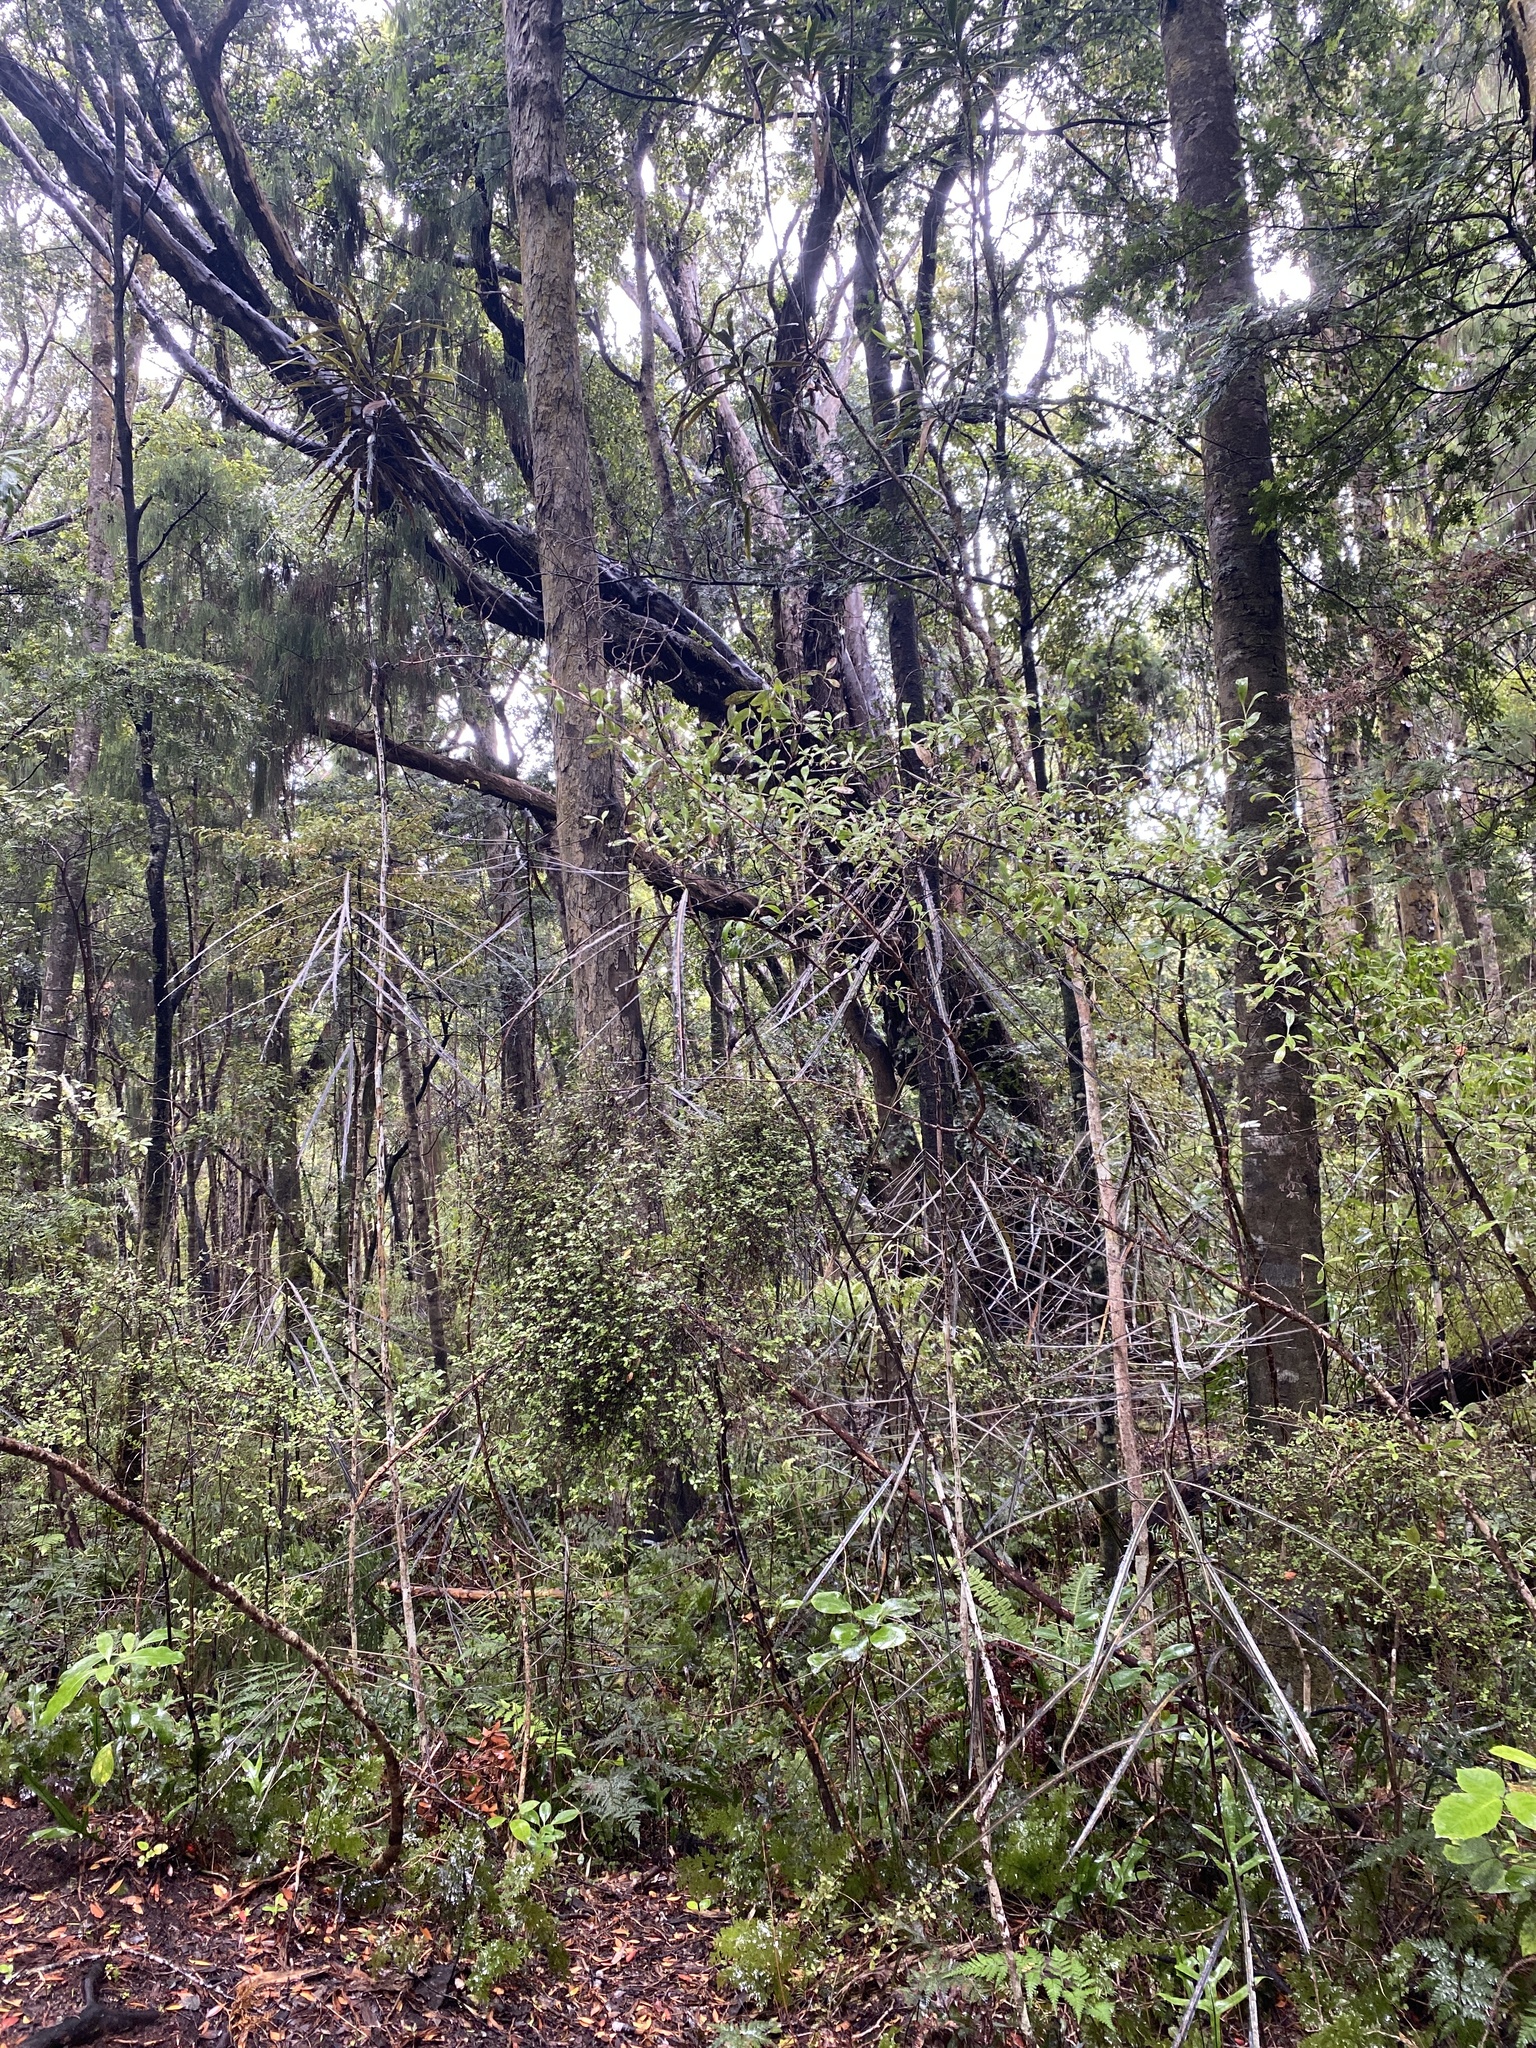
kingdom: Plantae
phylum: Tracheophyta
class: Magnoliopsida
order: Apiales
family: Araliaceae
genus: Pseudopanax
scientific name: Pseudopanax crassifolius
